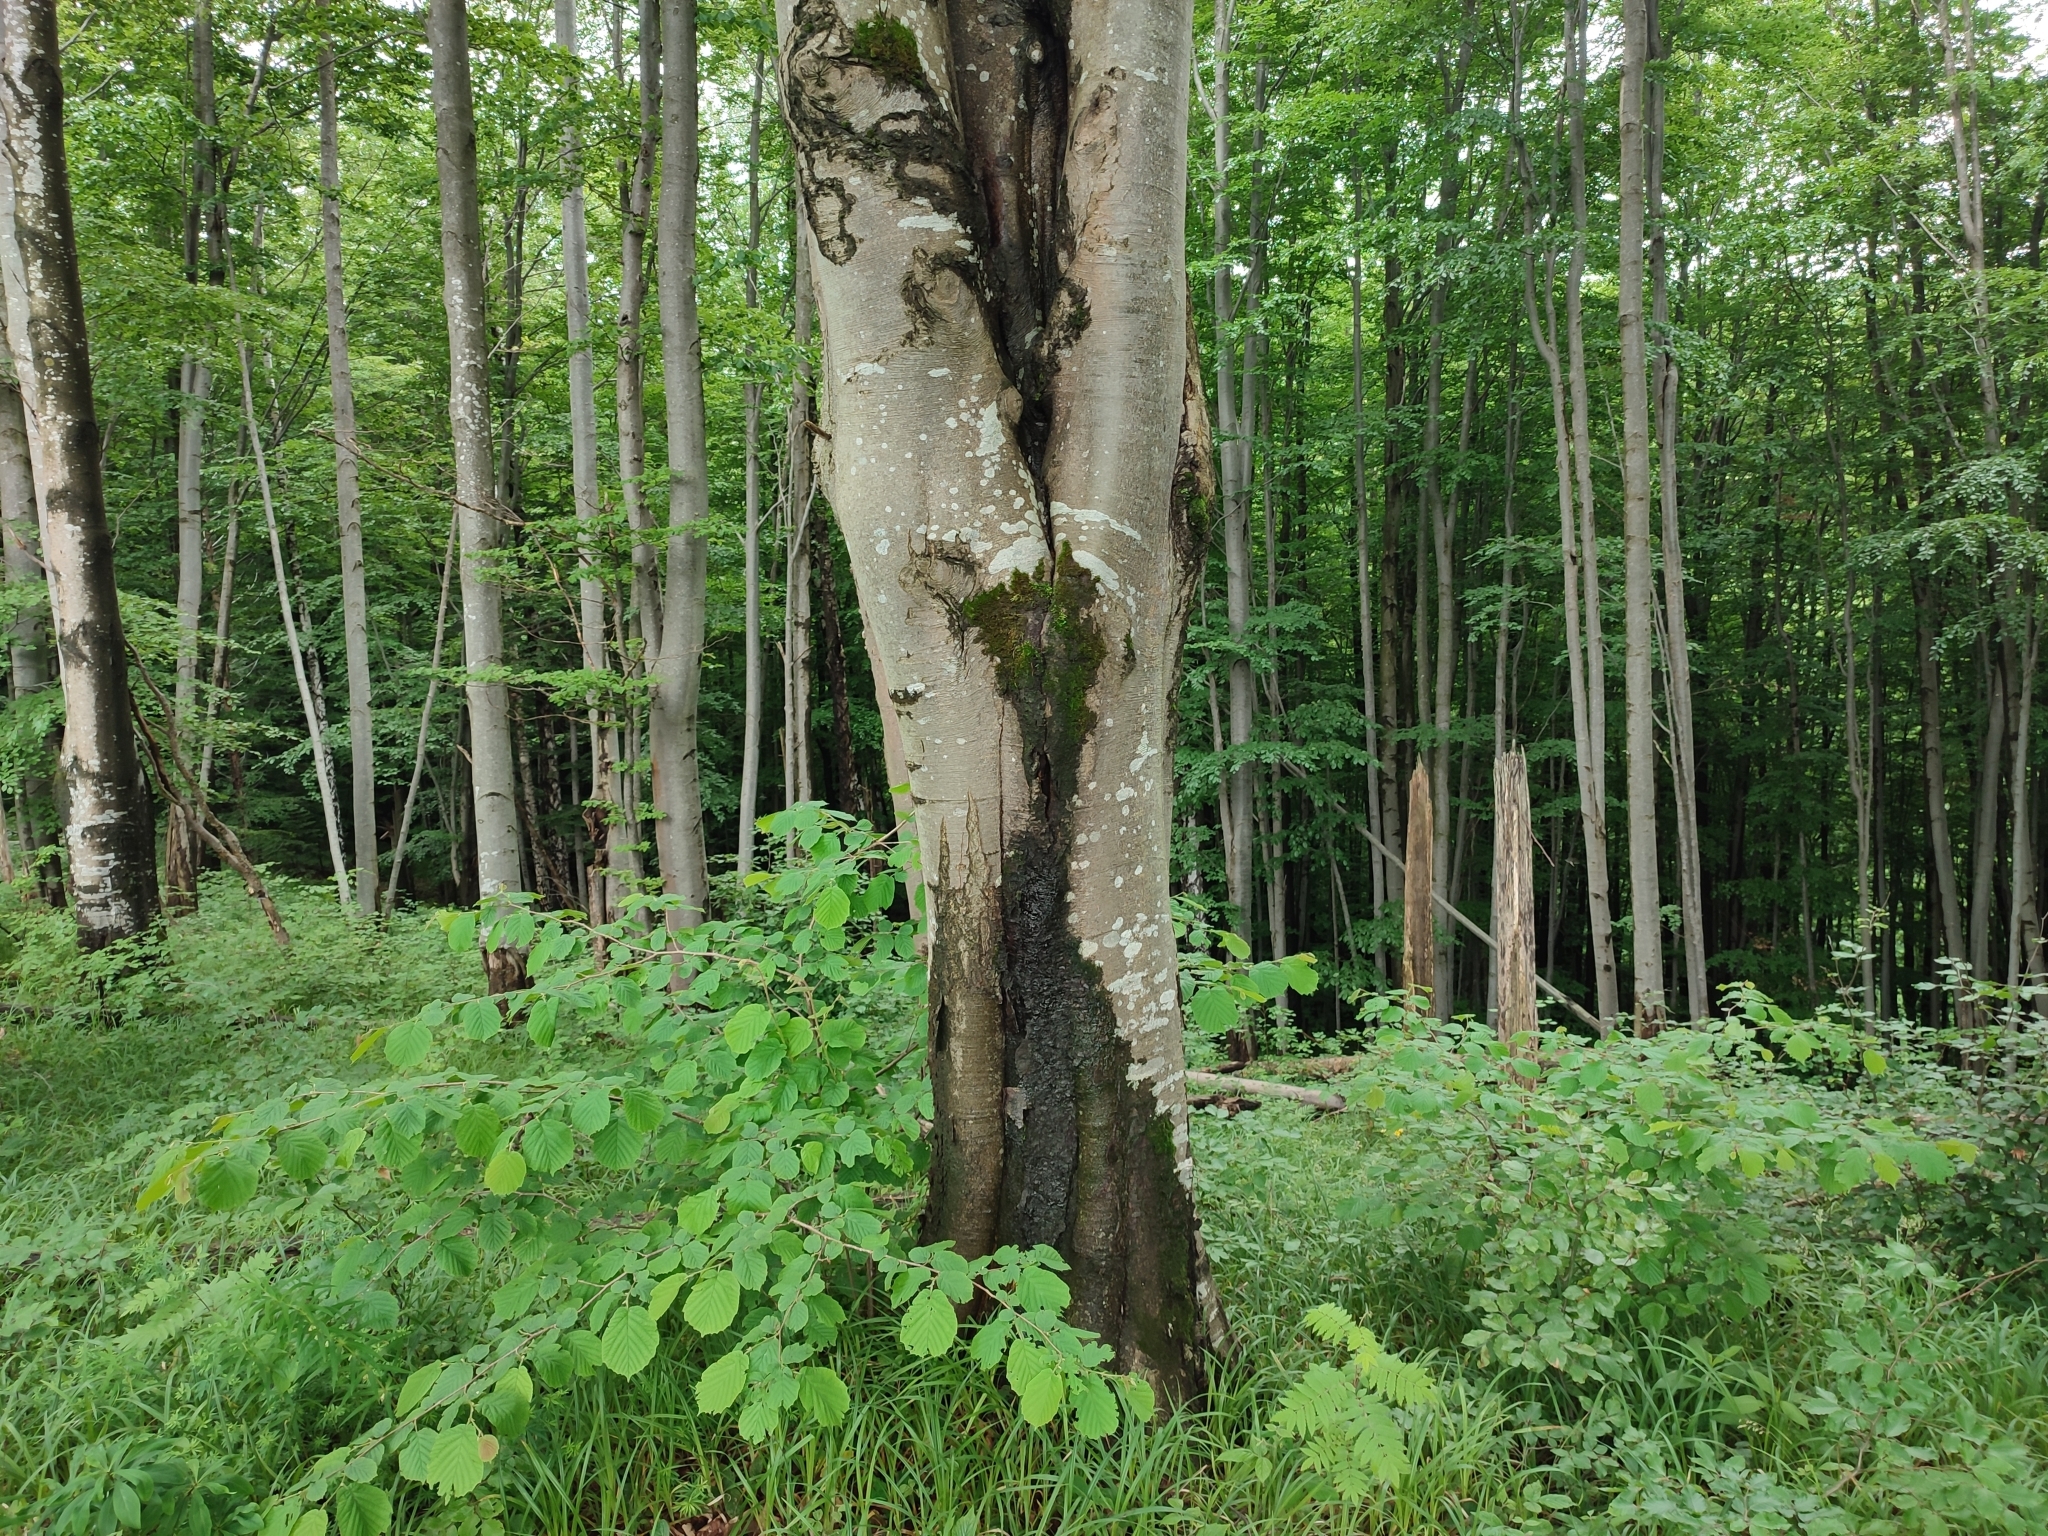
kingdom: Plantae
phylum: Tracheophyta
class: Magnoliopsida
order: Fagales
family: Fagaceae
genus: Fagus
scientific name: Fagus sylvatica
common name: Beech
